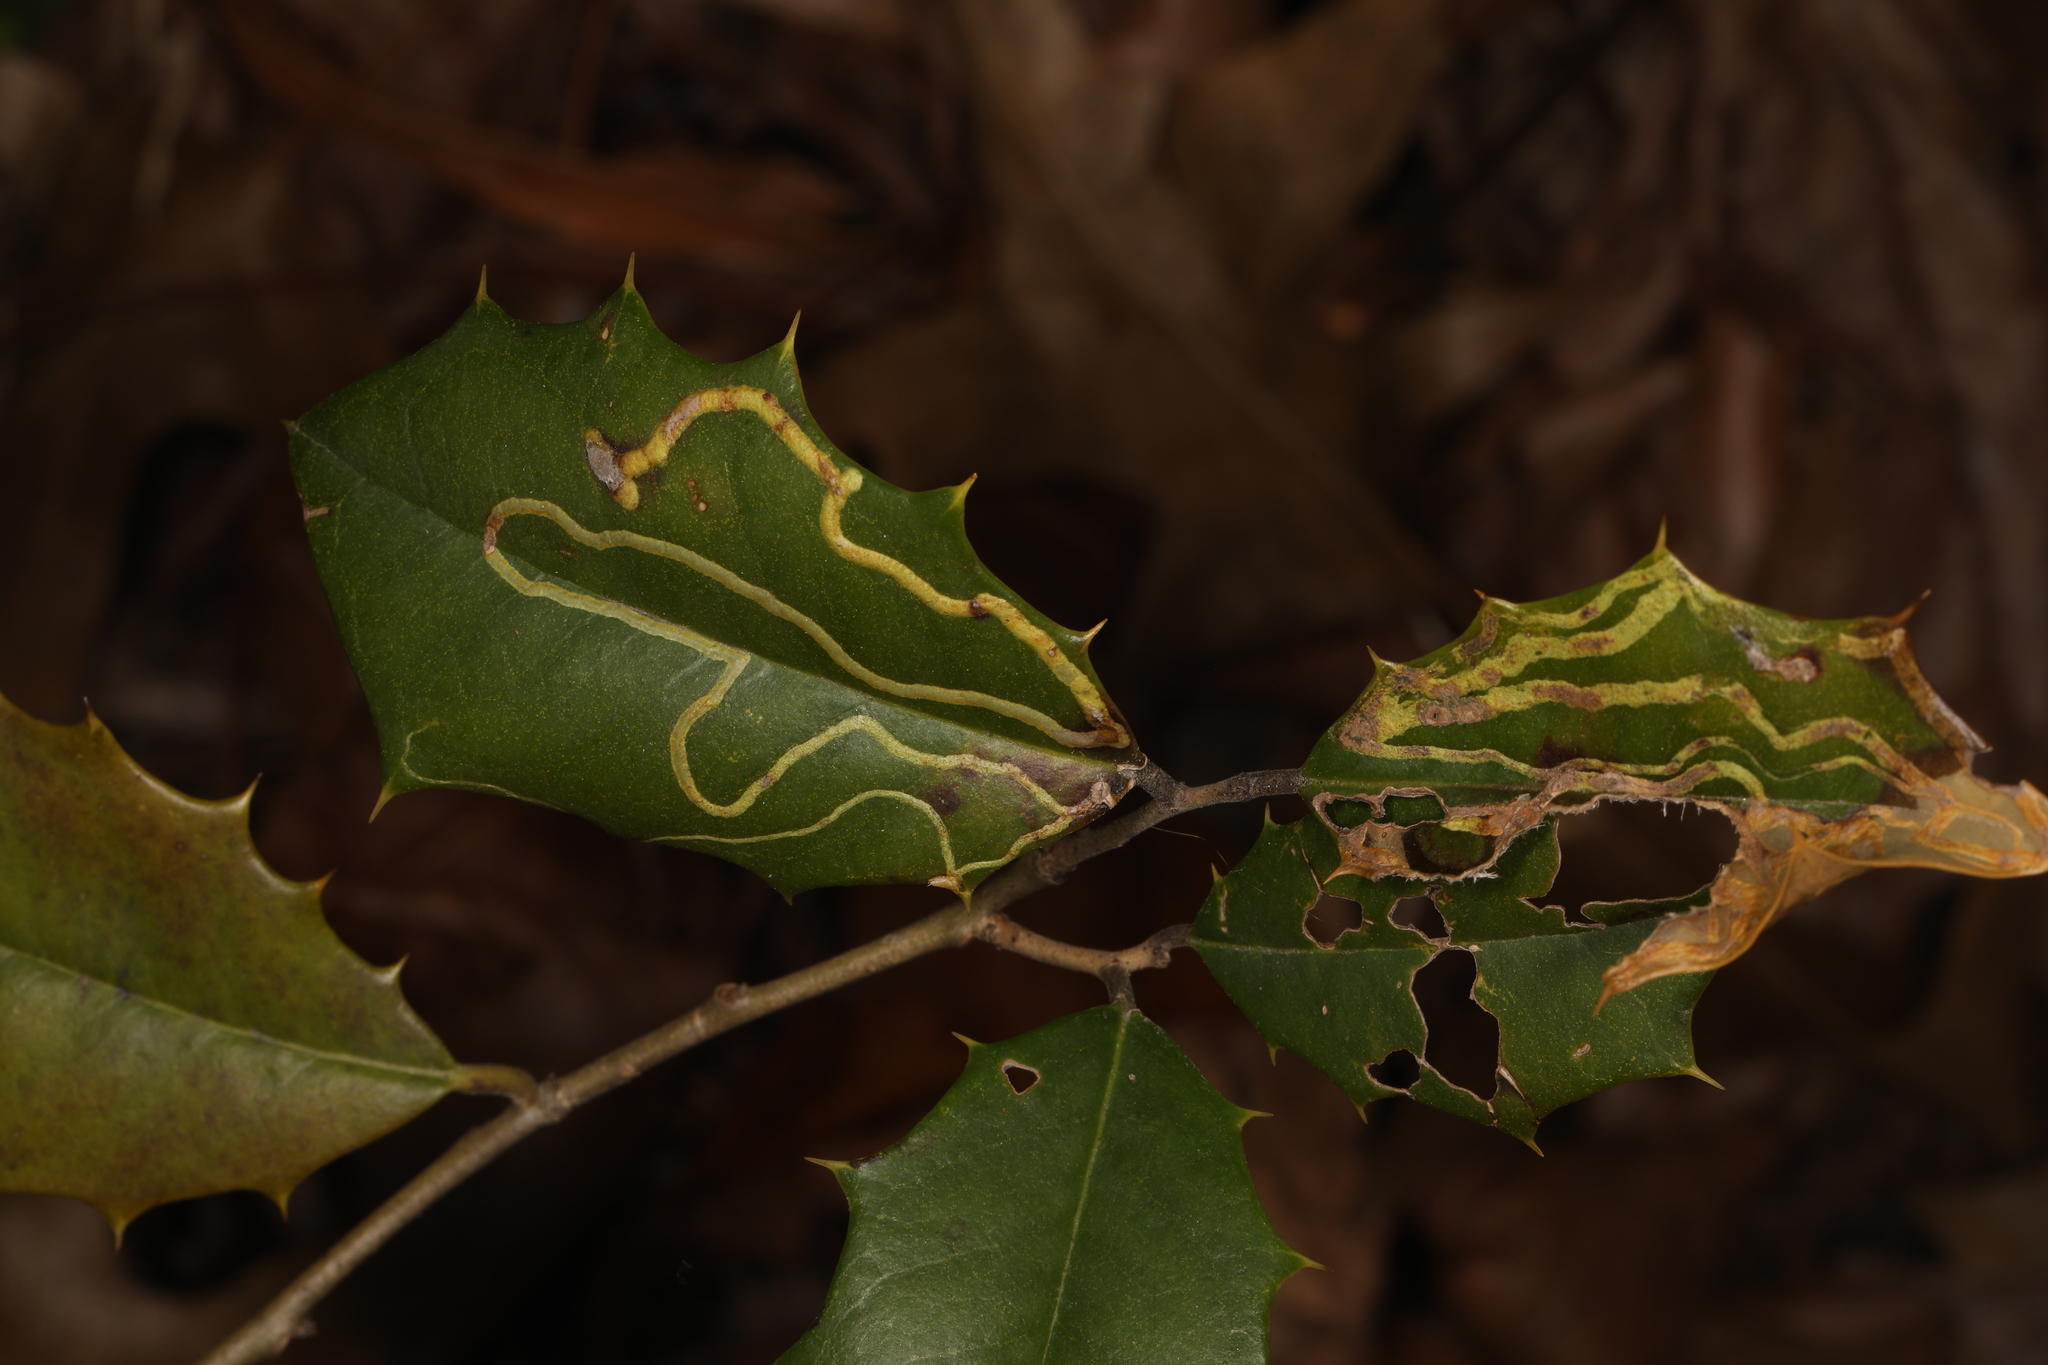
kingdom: Animalia
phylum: Arthropoda
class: Insecta
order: Diptera
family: Agromyzidae
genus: Phytomyza
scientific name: Phytomyza opacae
